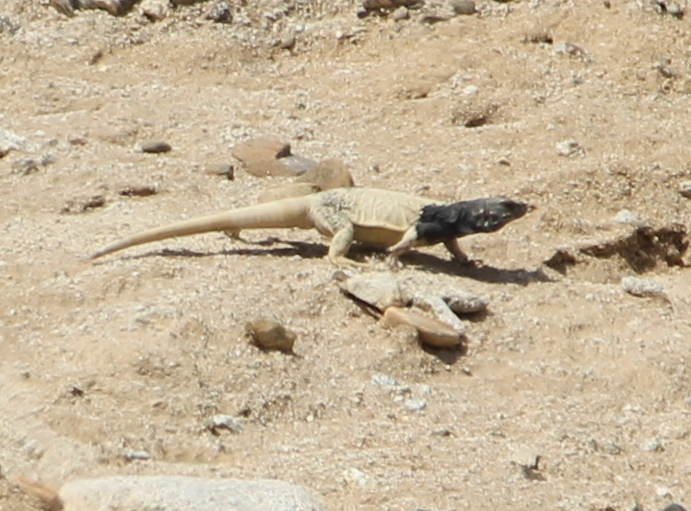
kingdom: Animalia
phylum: Chordata
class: Squamata
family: Iguanidae
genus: Sauromalus
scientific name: Sauromalus ater
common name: Northern chuckwalla
